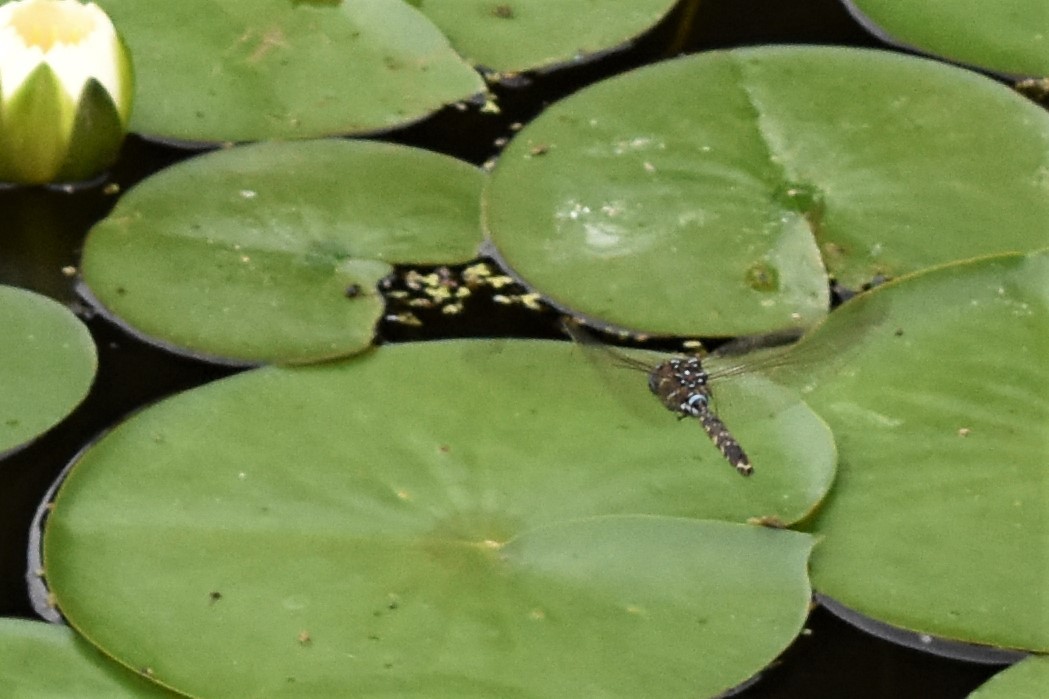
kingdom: Animalia
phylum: Arthropoda
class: Insecta
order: Odonata
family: Aeshnidae
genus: Aeshna
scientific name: Aeshna brevistyla
